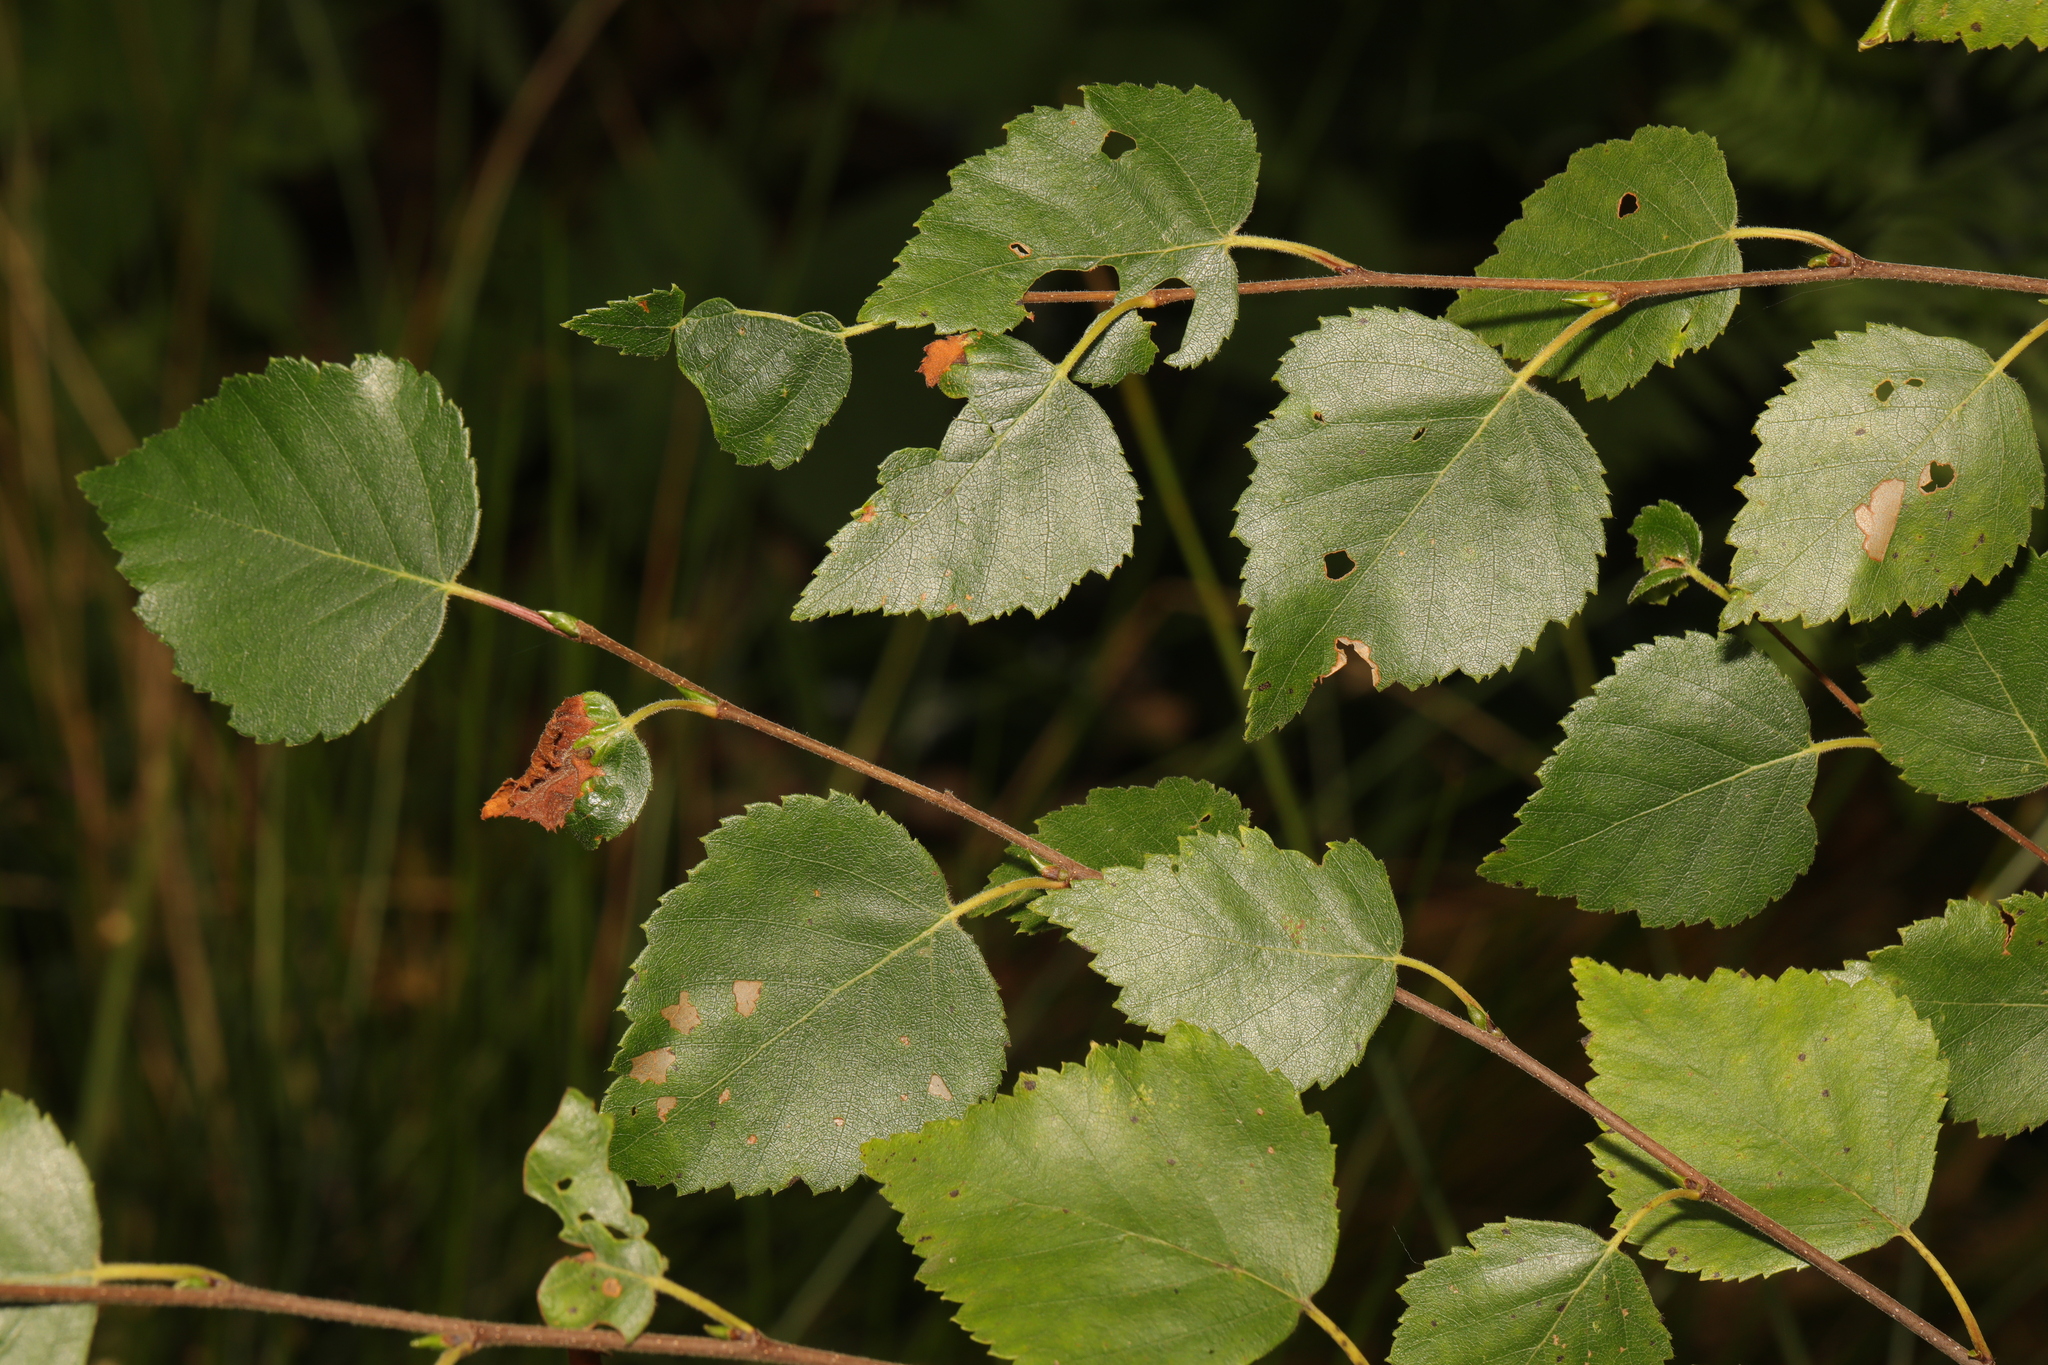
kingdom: Plantae
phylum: Tracheophyta
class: Magnoliopsida
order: Fagales
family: Betulaceae
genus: Betula
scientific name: Betula pendula
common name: Silver birch
